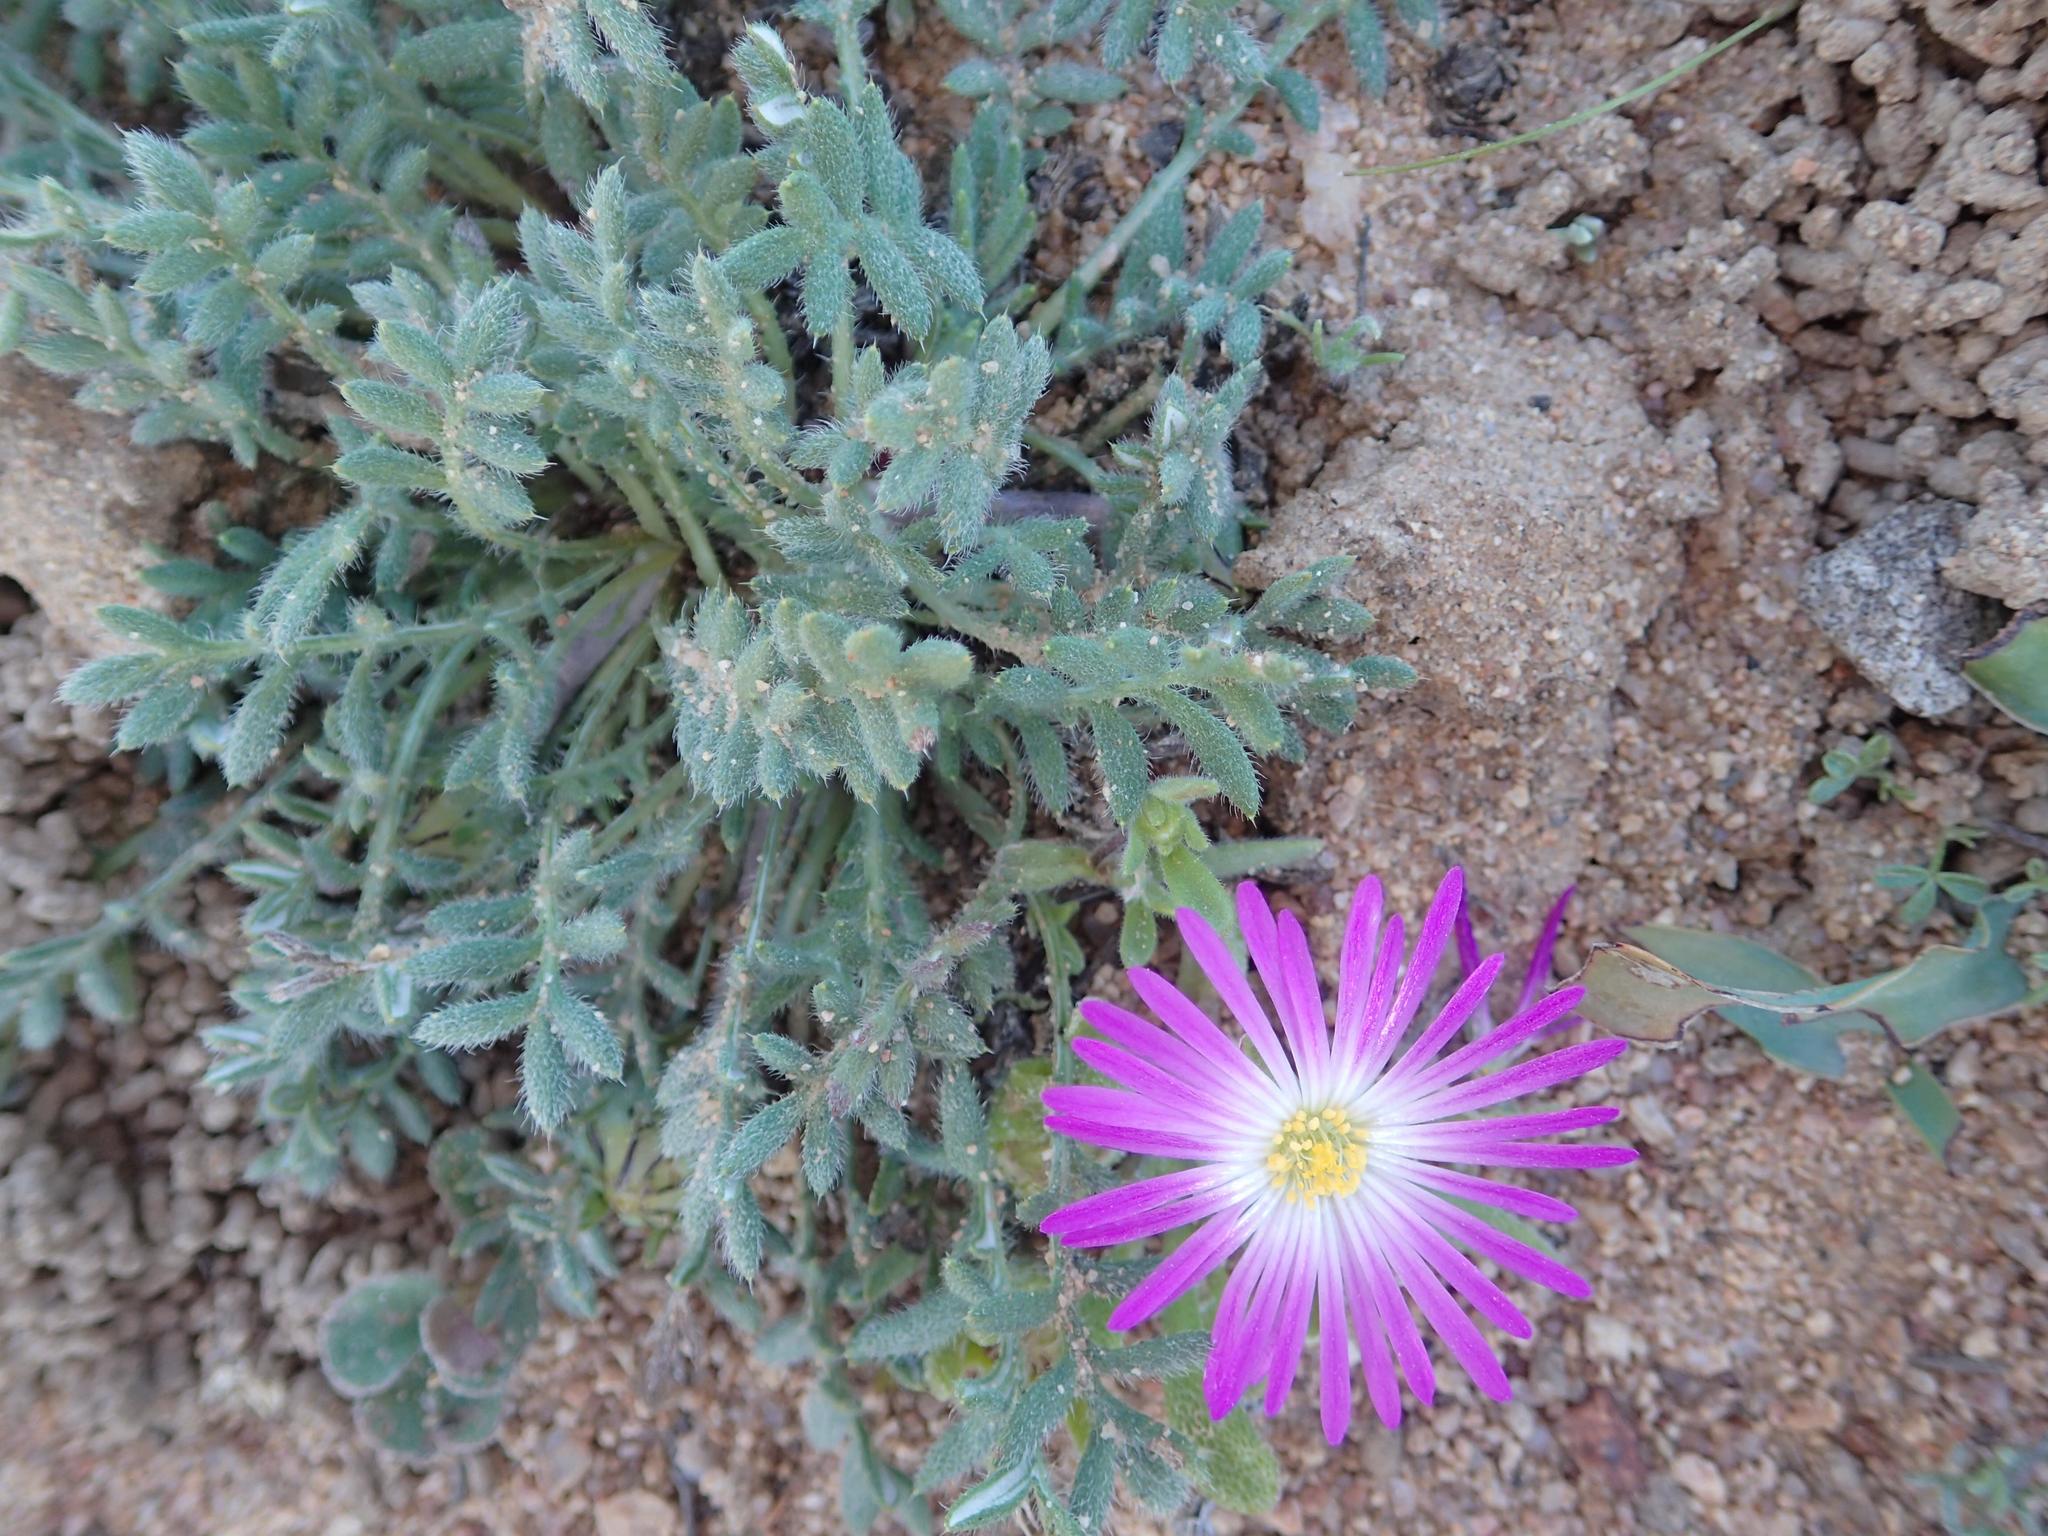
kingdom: Plantae
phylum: Tracheophyta
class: Magnoliopsida
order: Caryophyllales
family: Aizoaceae
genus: Cleretum
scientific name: Cleretum hestermalense
